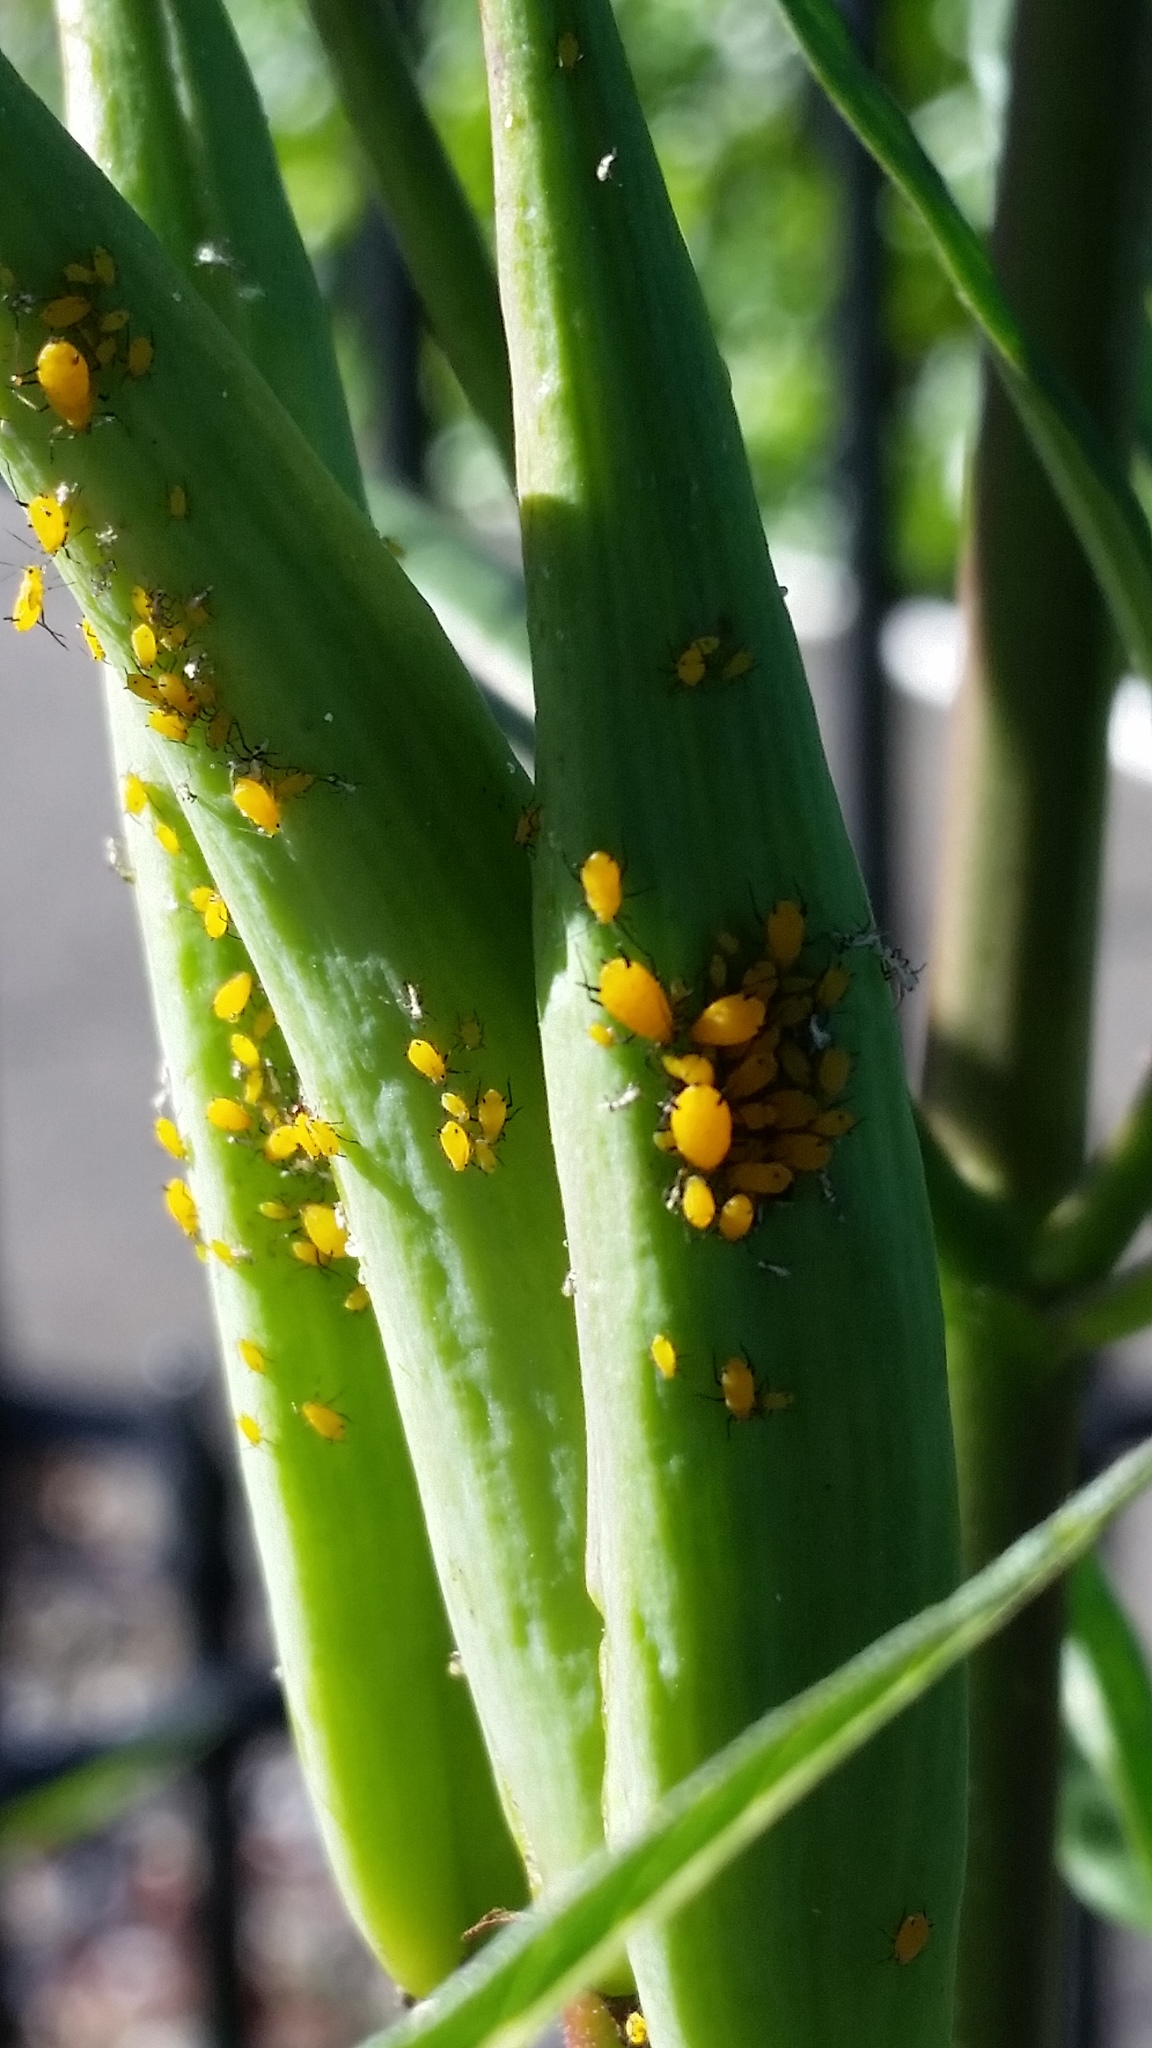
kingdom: Animalia
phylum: Arthropoda
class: Insecta
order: Hemiptera
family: Aphididae
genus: Aphis
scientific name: Aphis nerii
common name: Oleander aphid
